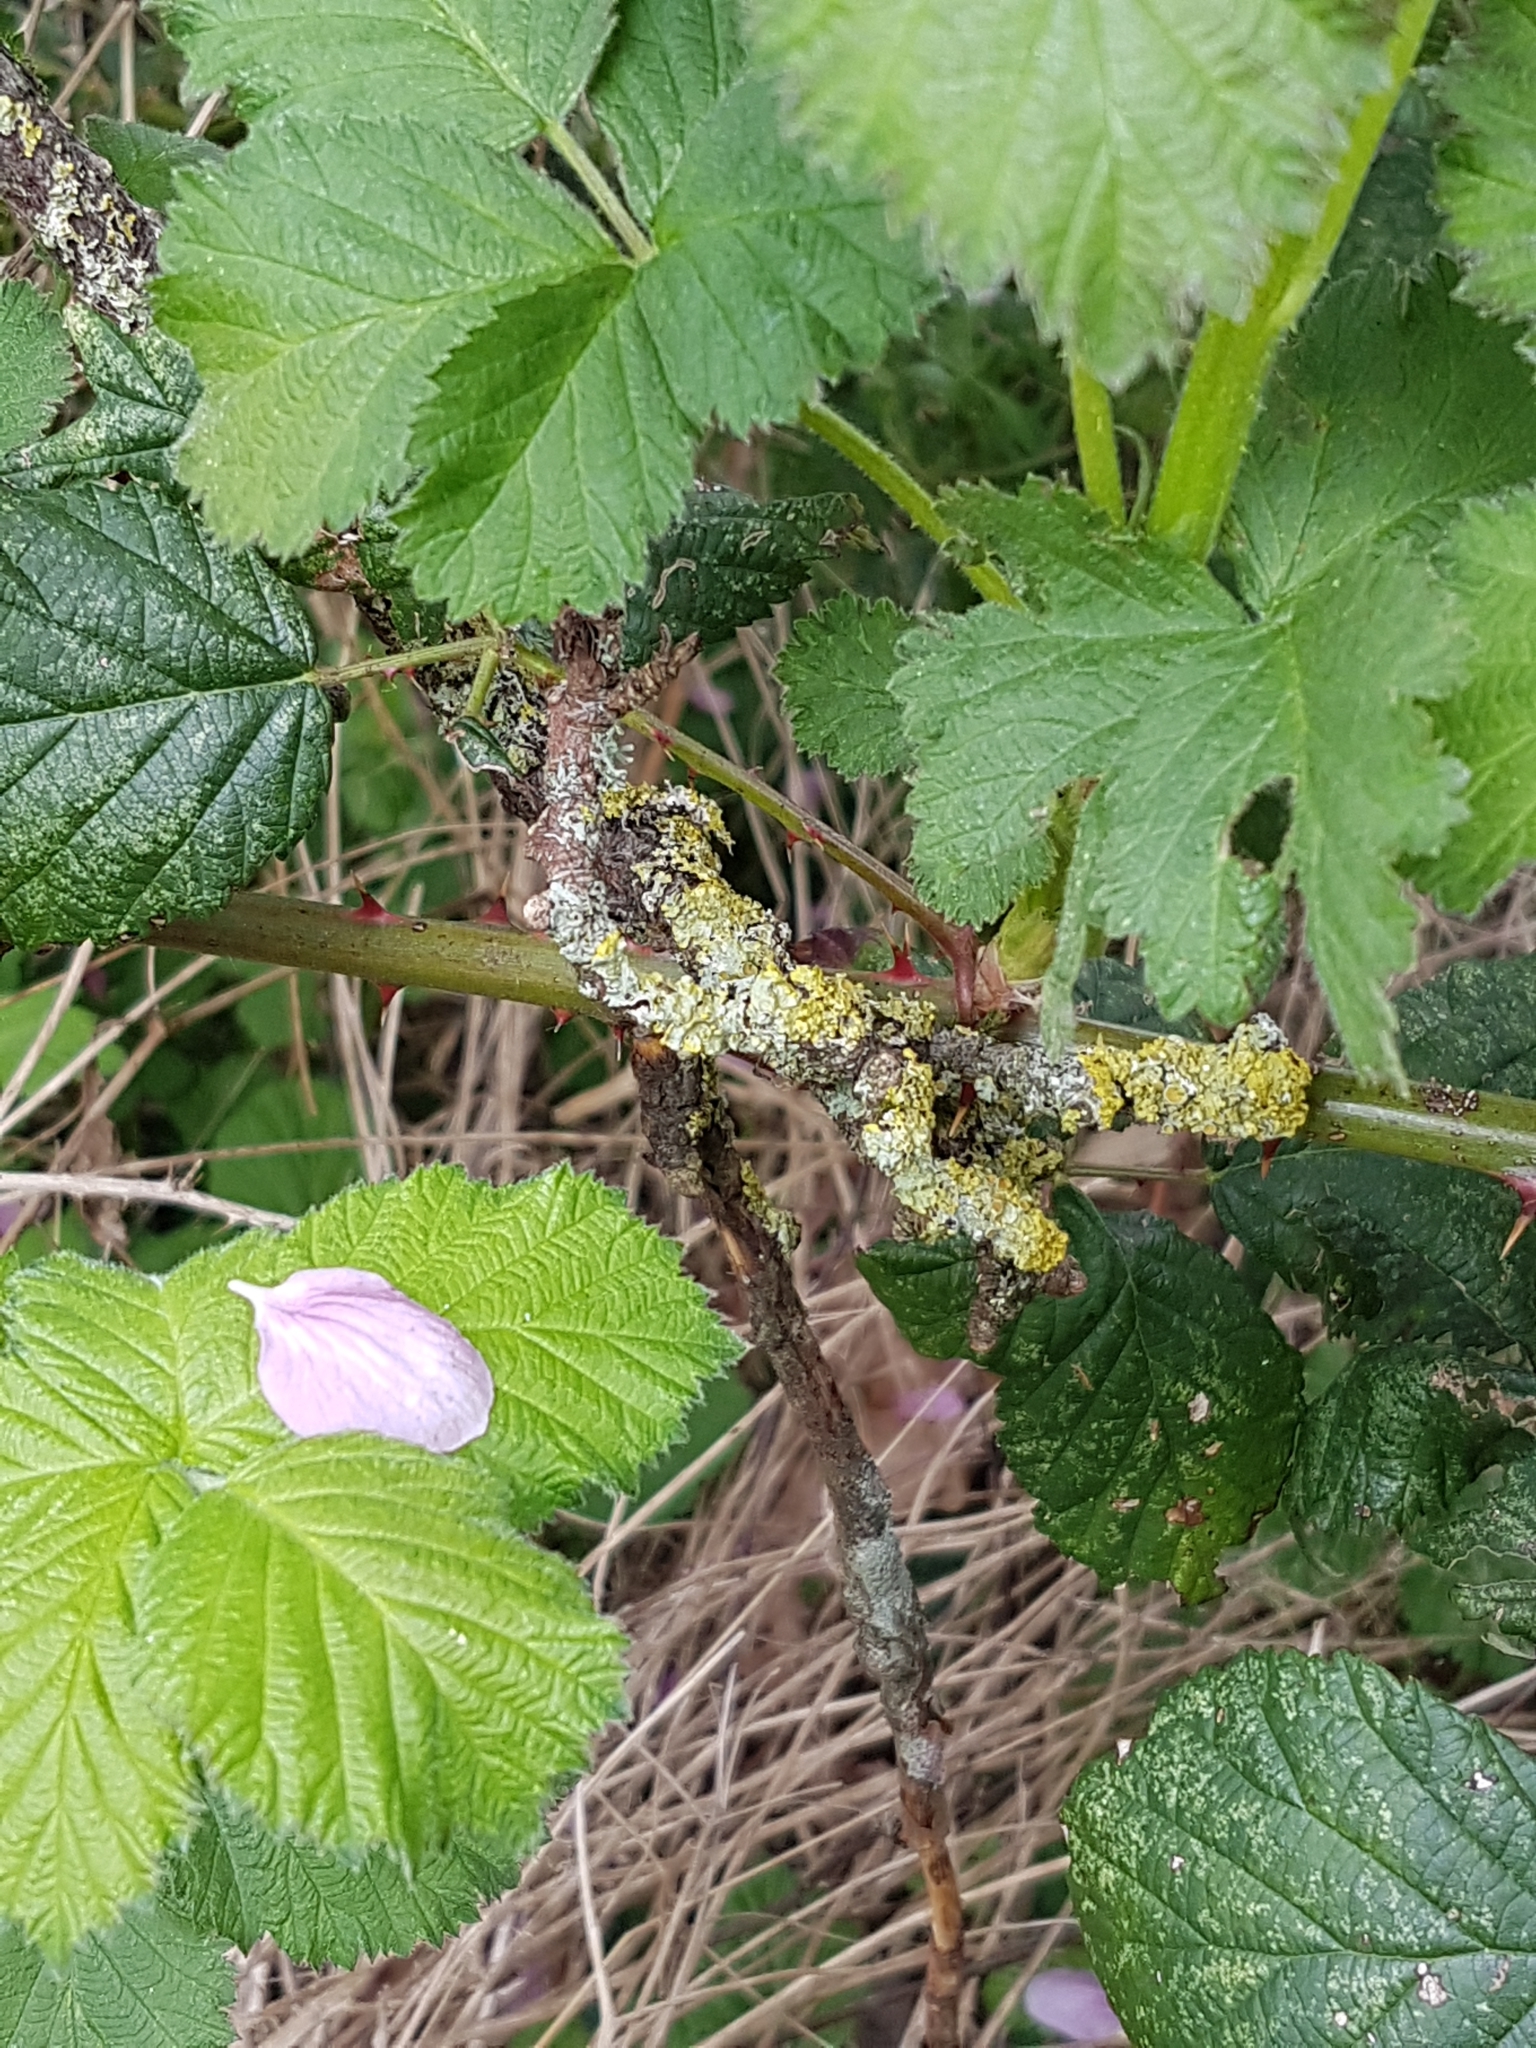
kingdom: Fungi
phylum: Ascomycota
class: Lecanoromycetes
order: Teloschistales
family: Teloschistaceae
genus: Xanthoria
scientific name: Xanthoria parietina
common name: Common orange lichen
